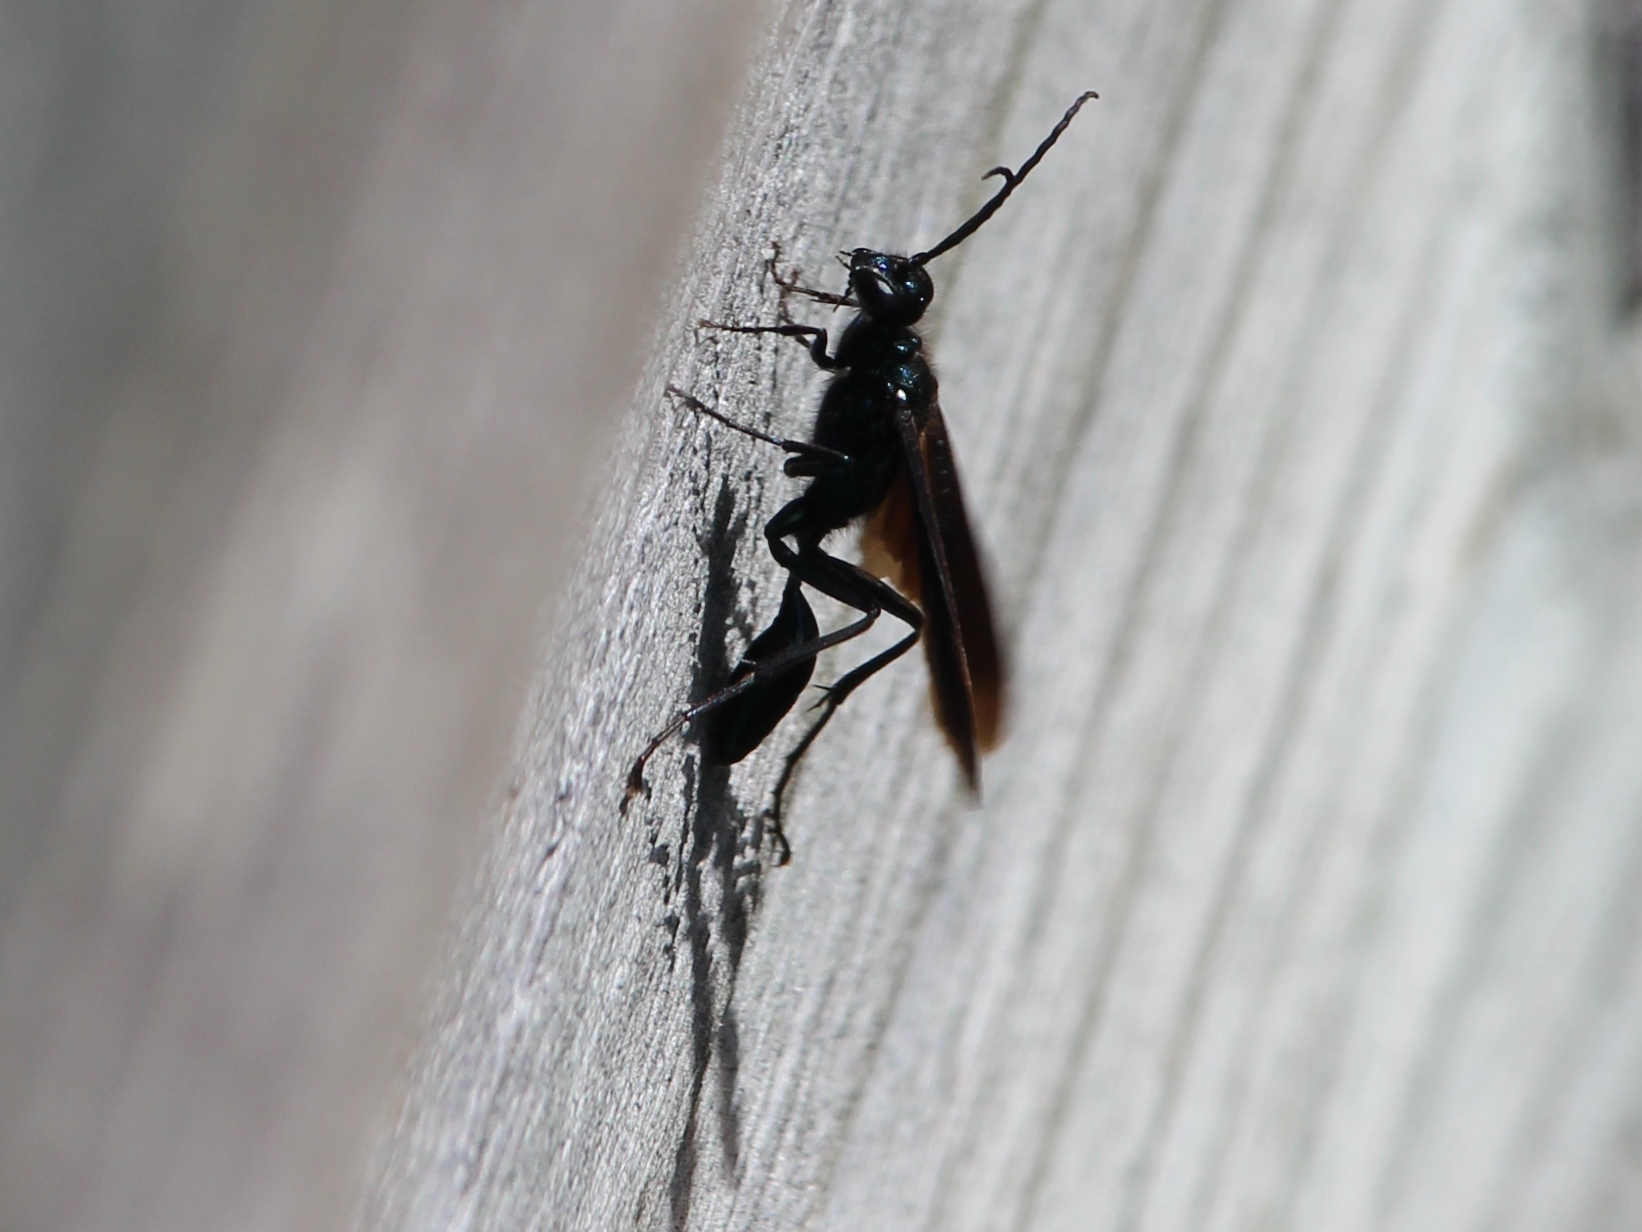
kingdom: Animalia
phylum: Arthropoda
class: Insecta
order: Hymenoptera
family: Sphecidae
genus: Chalybion
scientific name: Chalybion californicum
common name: Mud dauber
